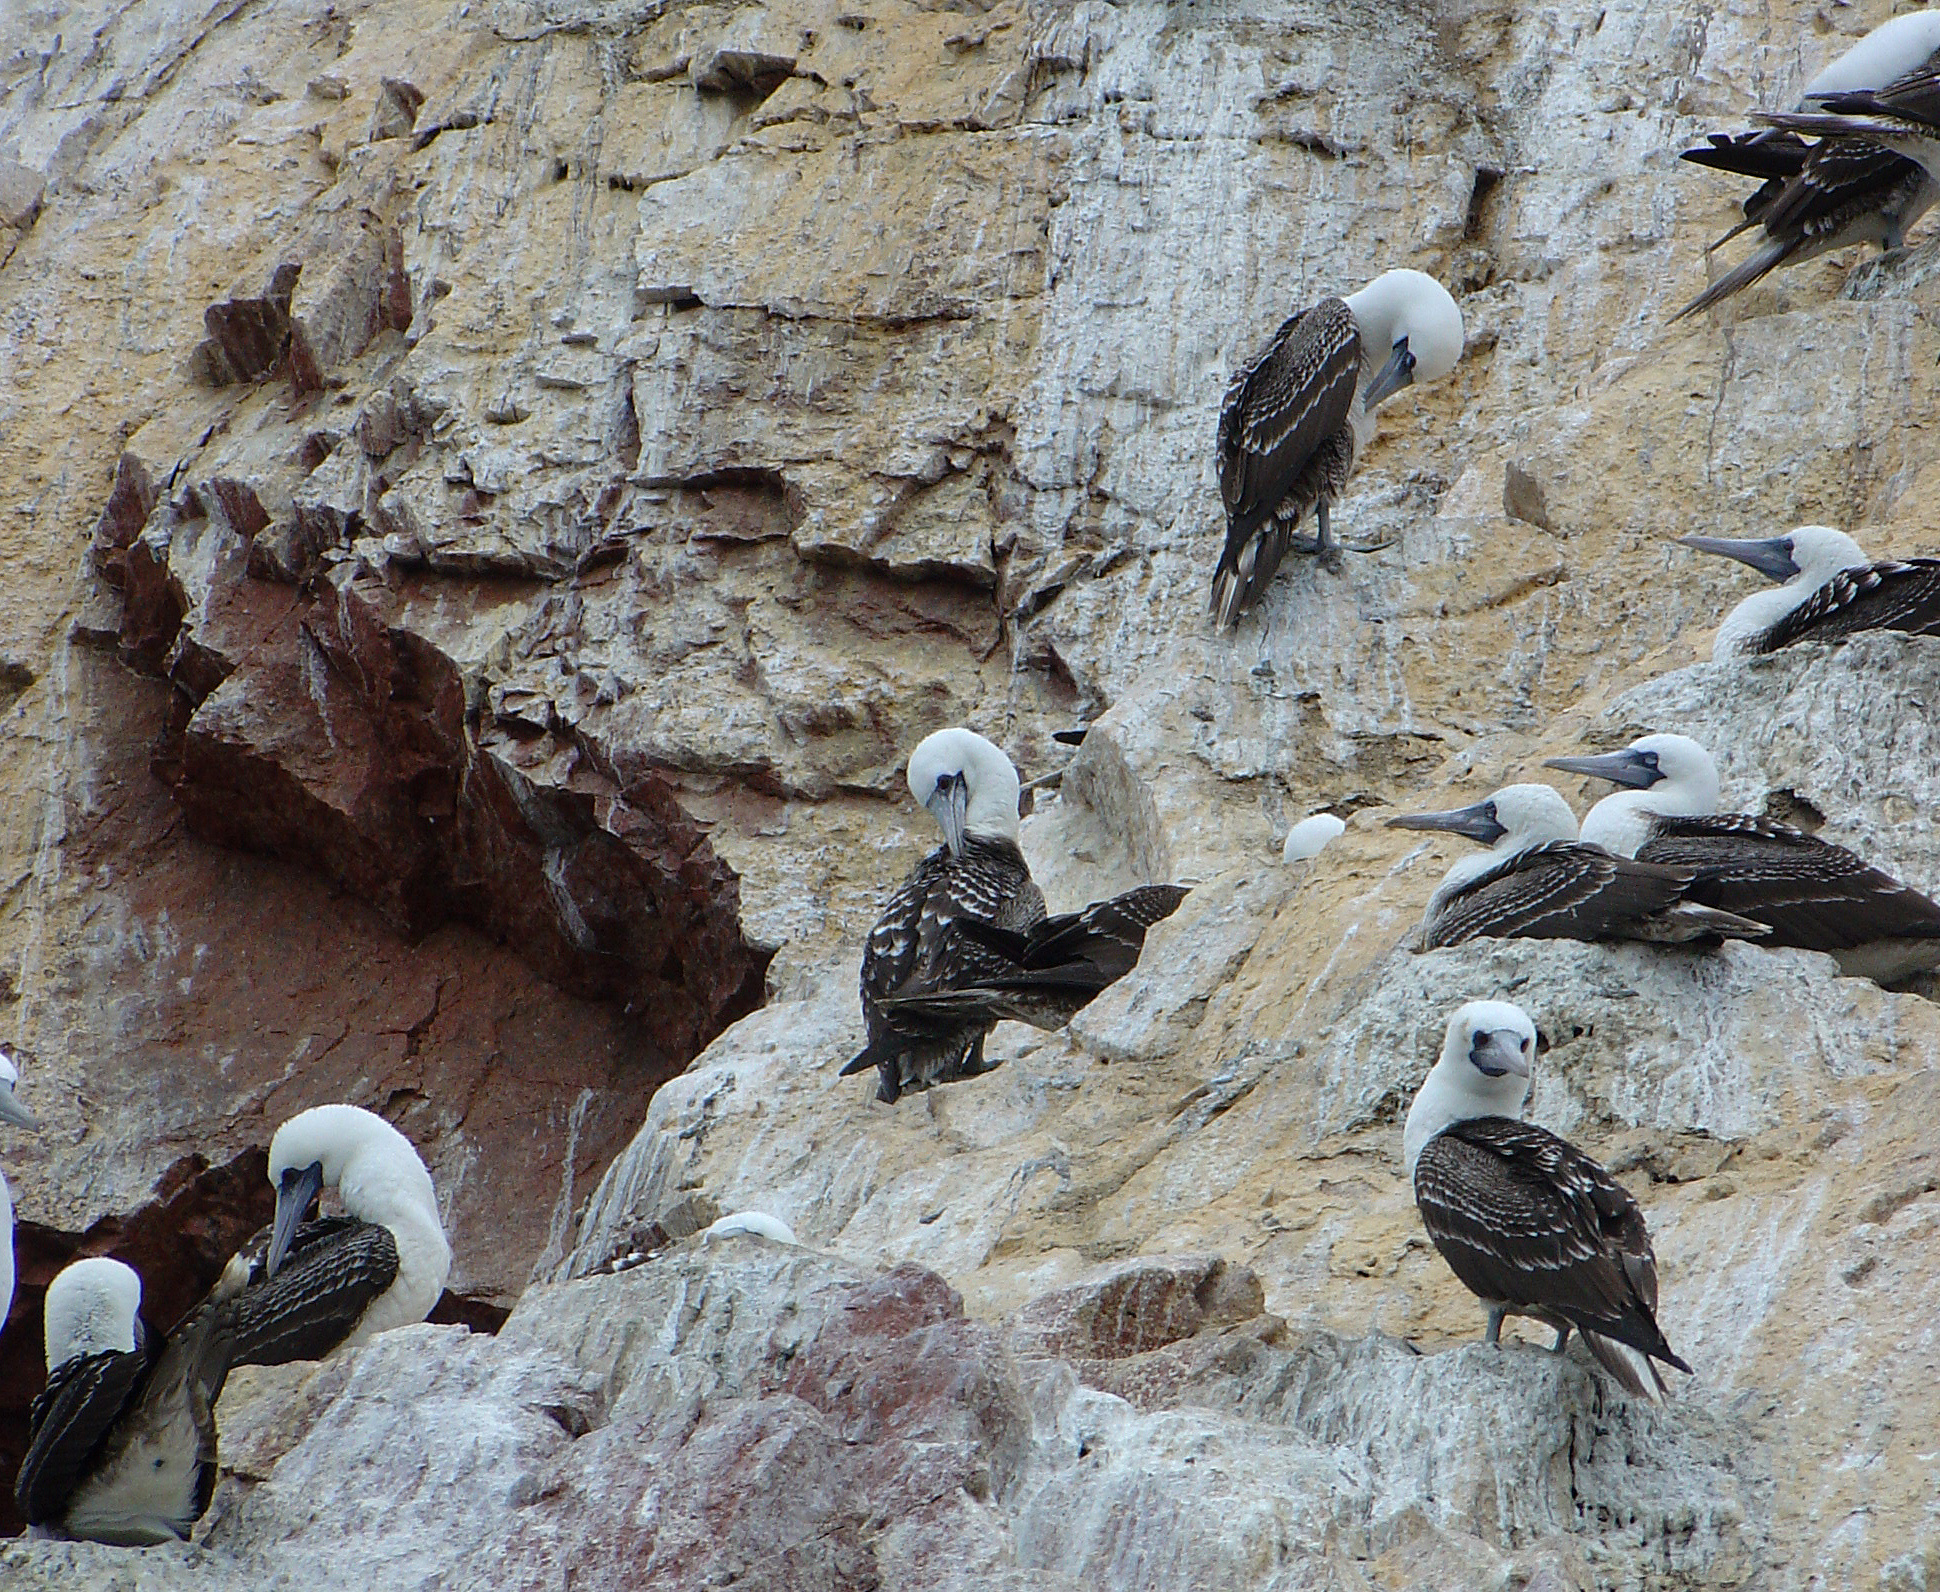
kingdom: Animalia
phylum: Chordata
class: Aves
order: Suliformes
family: Sulidae
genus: Sula
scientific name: Sula variegata
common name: Peruvian booby
